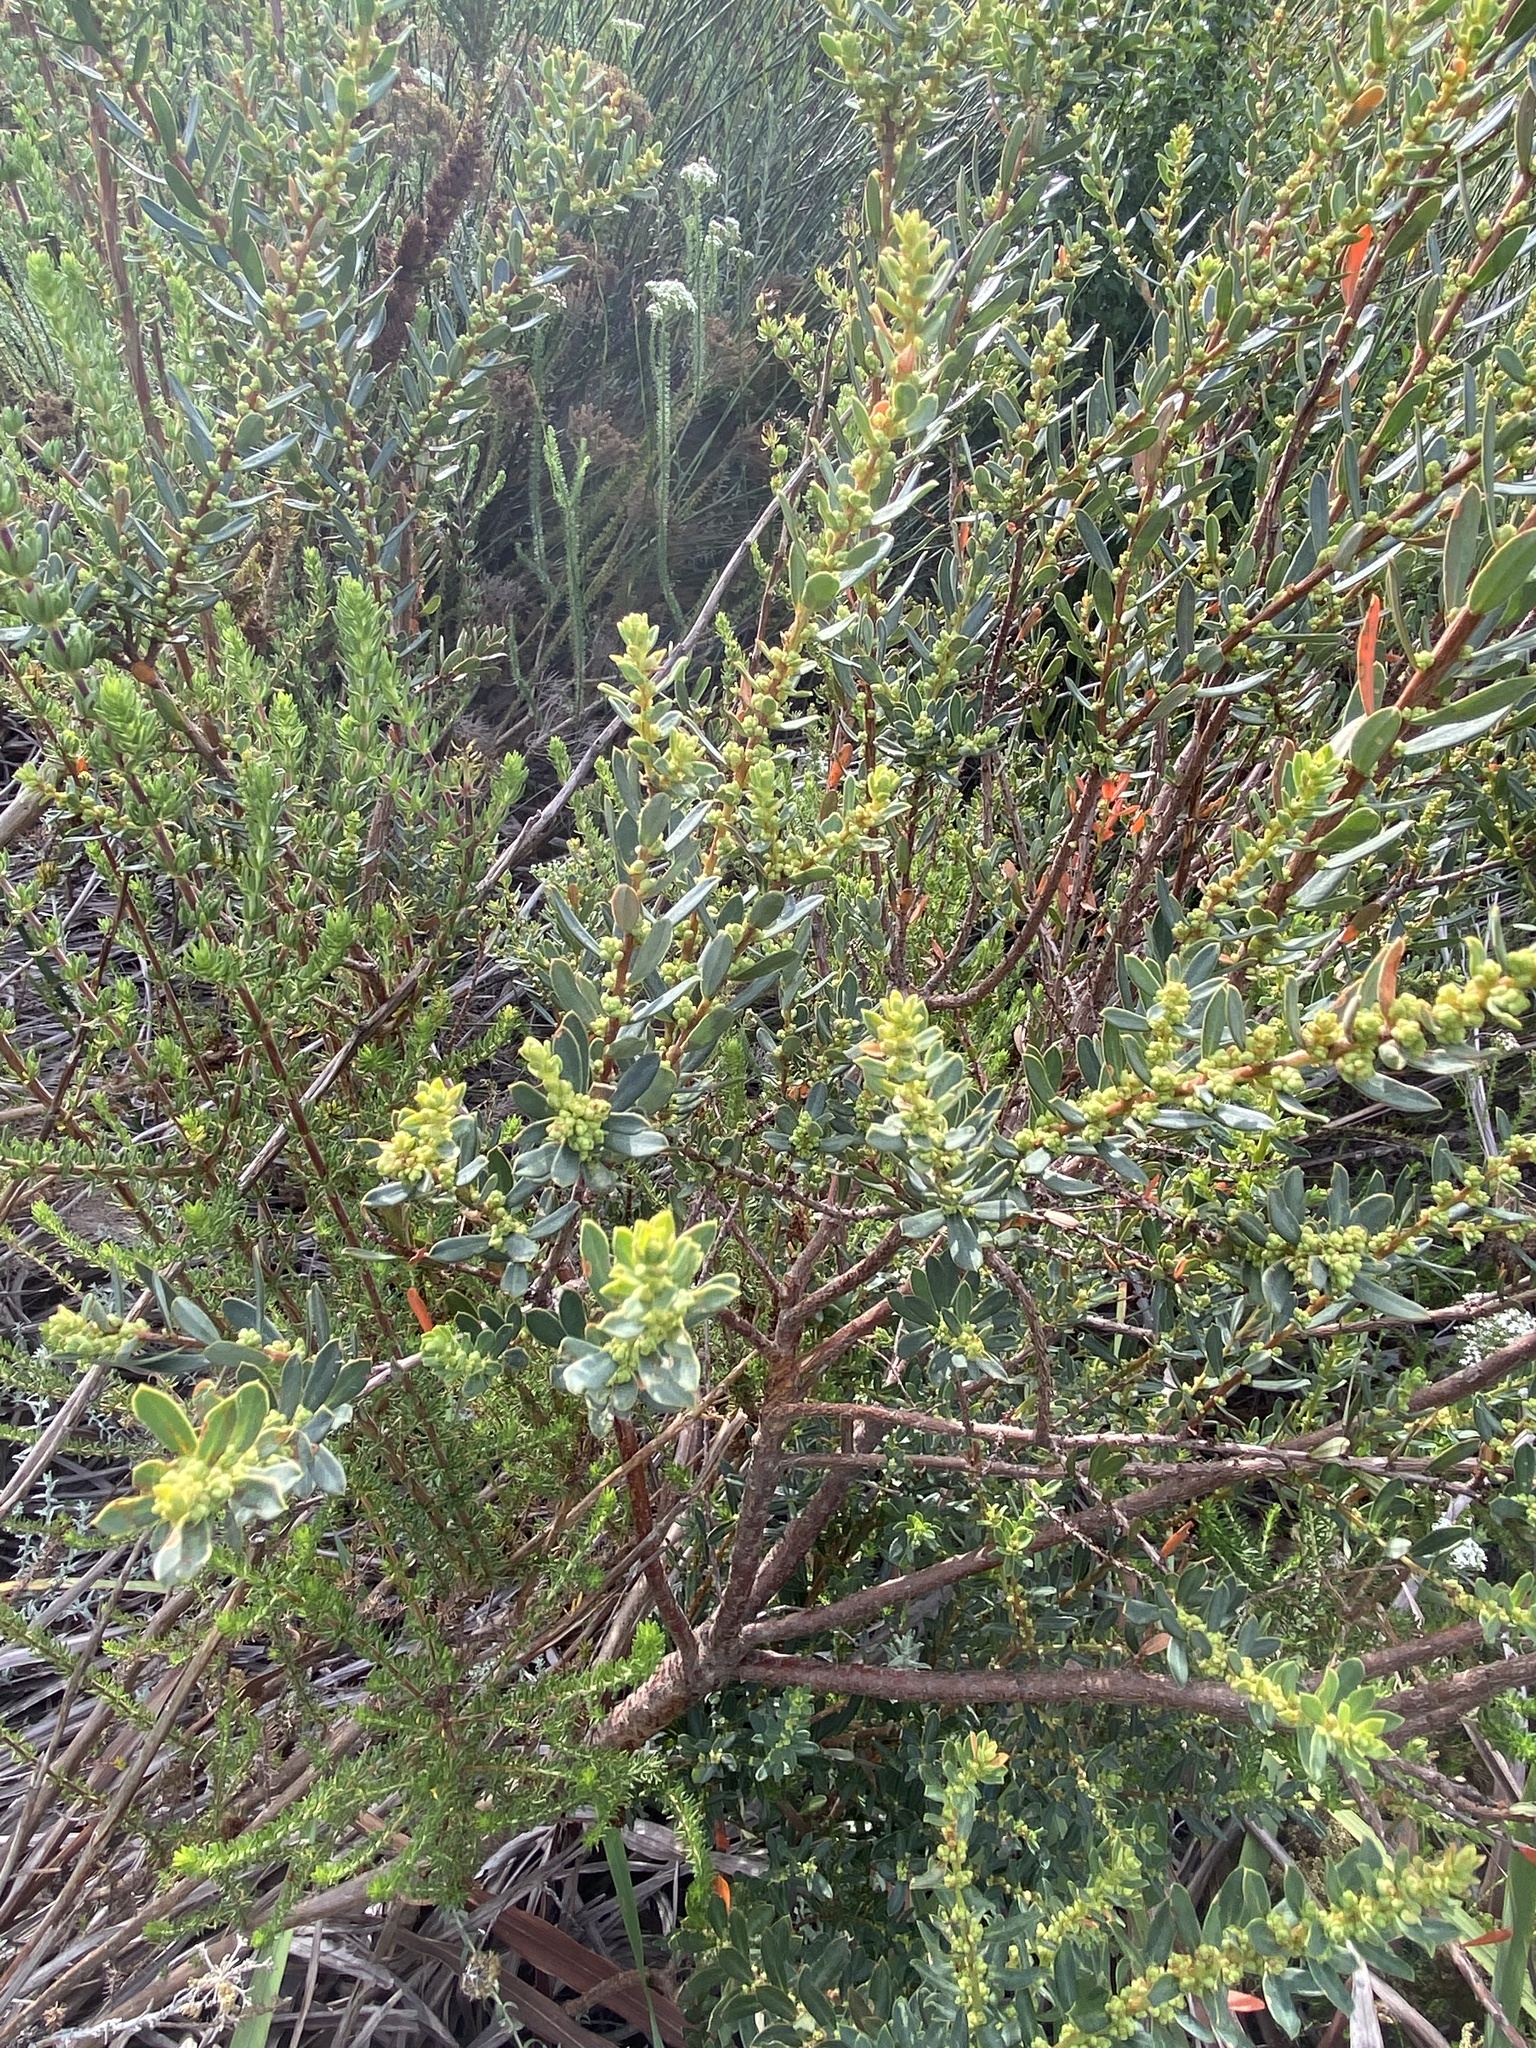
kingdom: Plantae
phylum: Tracheophyta
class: Magnoliopsida
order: Malpighiales
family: Peraceae
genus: Clutia
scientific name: Clutia laxa
